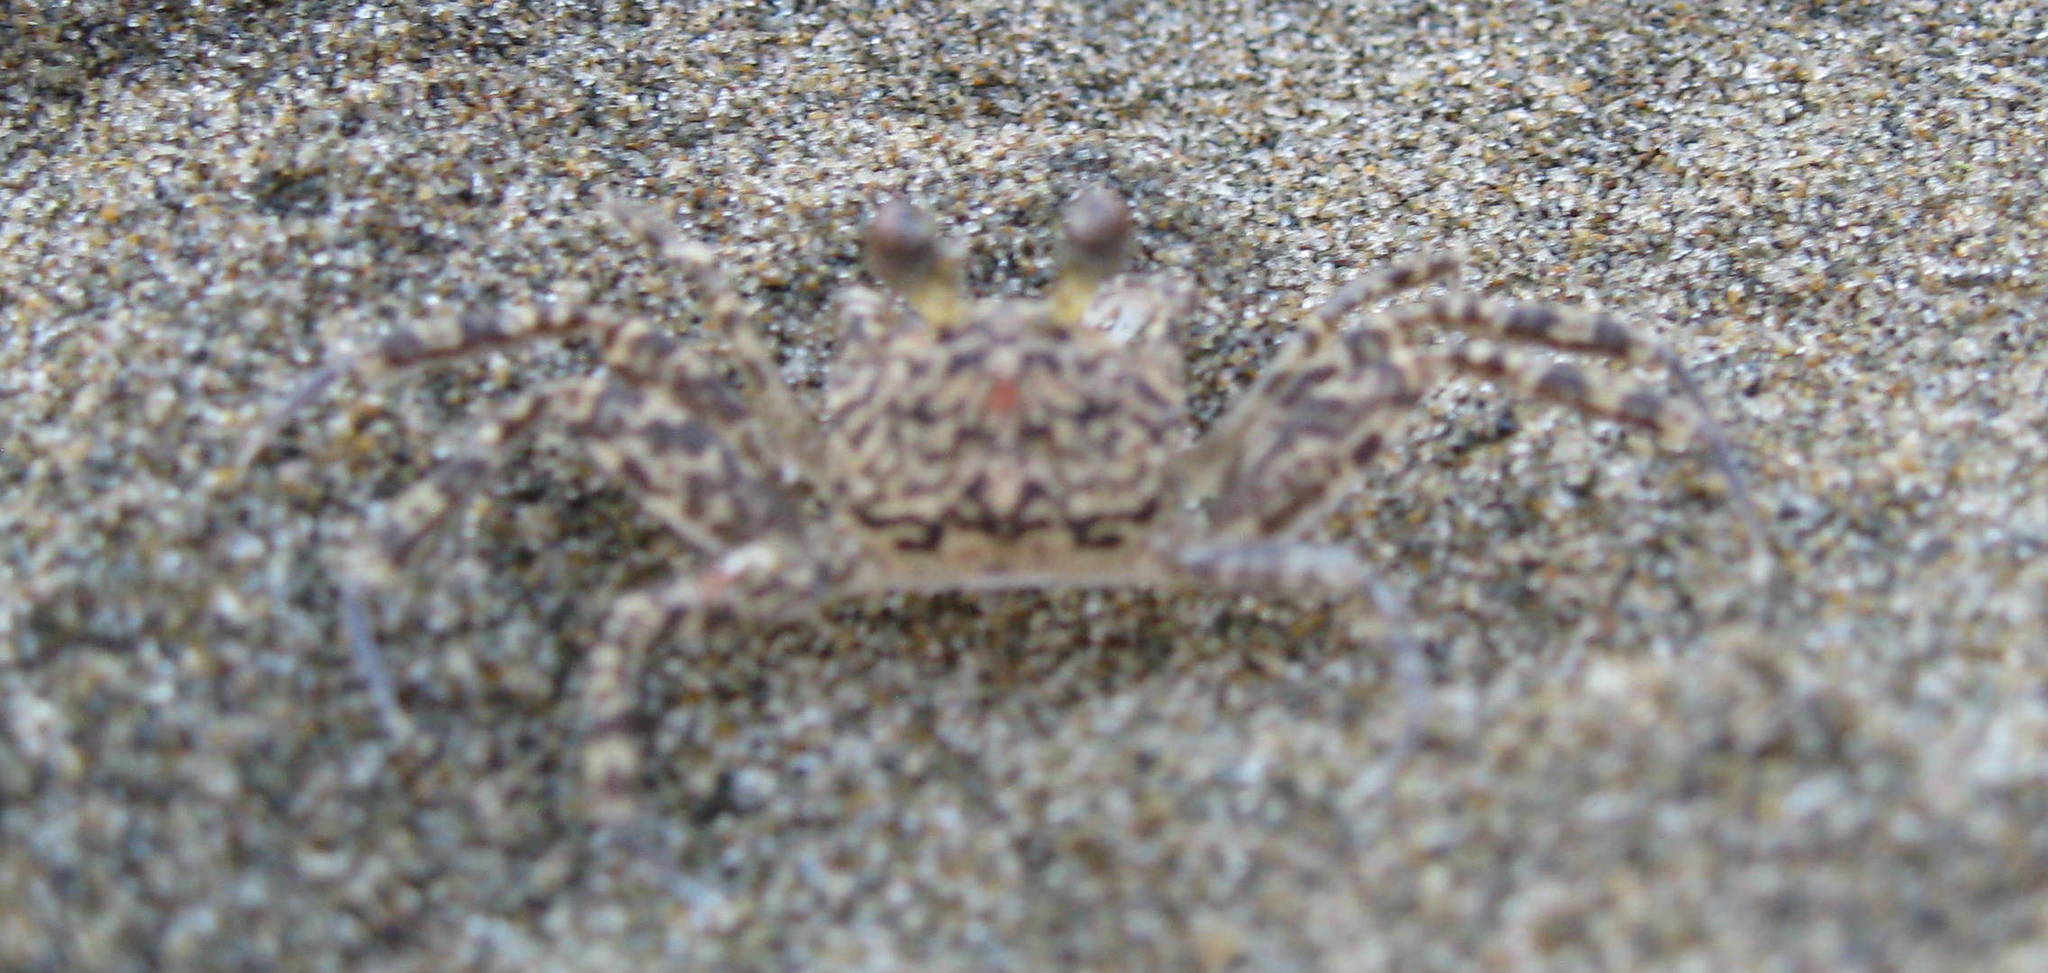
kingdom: Animalia
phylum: Arthropoda
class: Malacostraca
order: Decapoda
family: Ocypodidae
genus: Ocypode
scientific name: Ocypode quadrata
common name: Ghost crab
